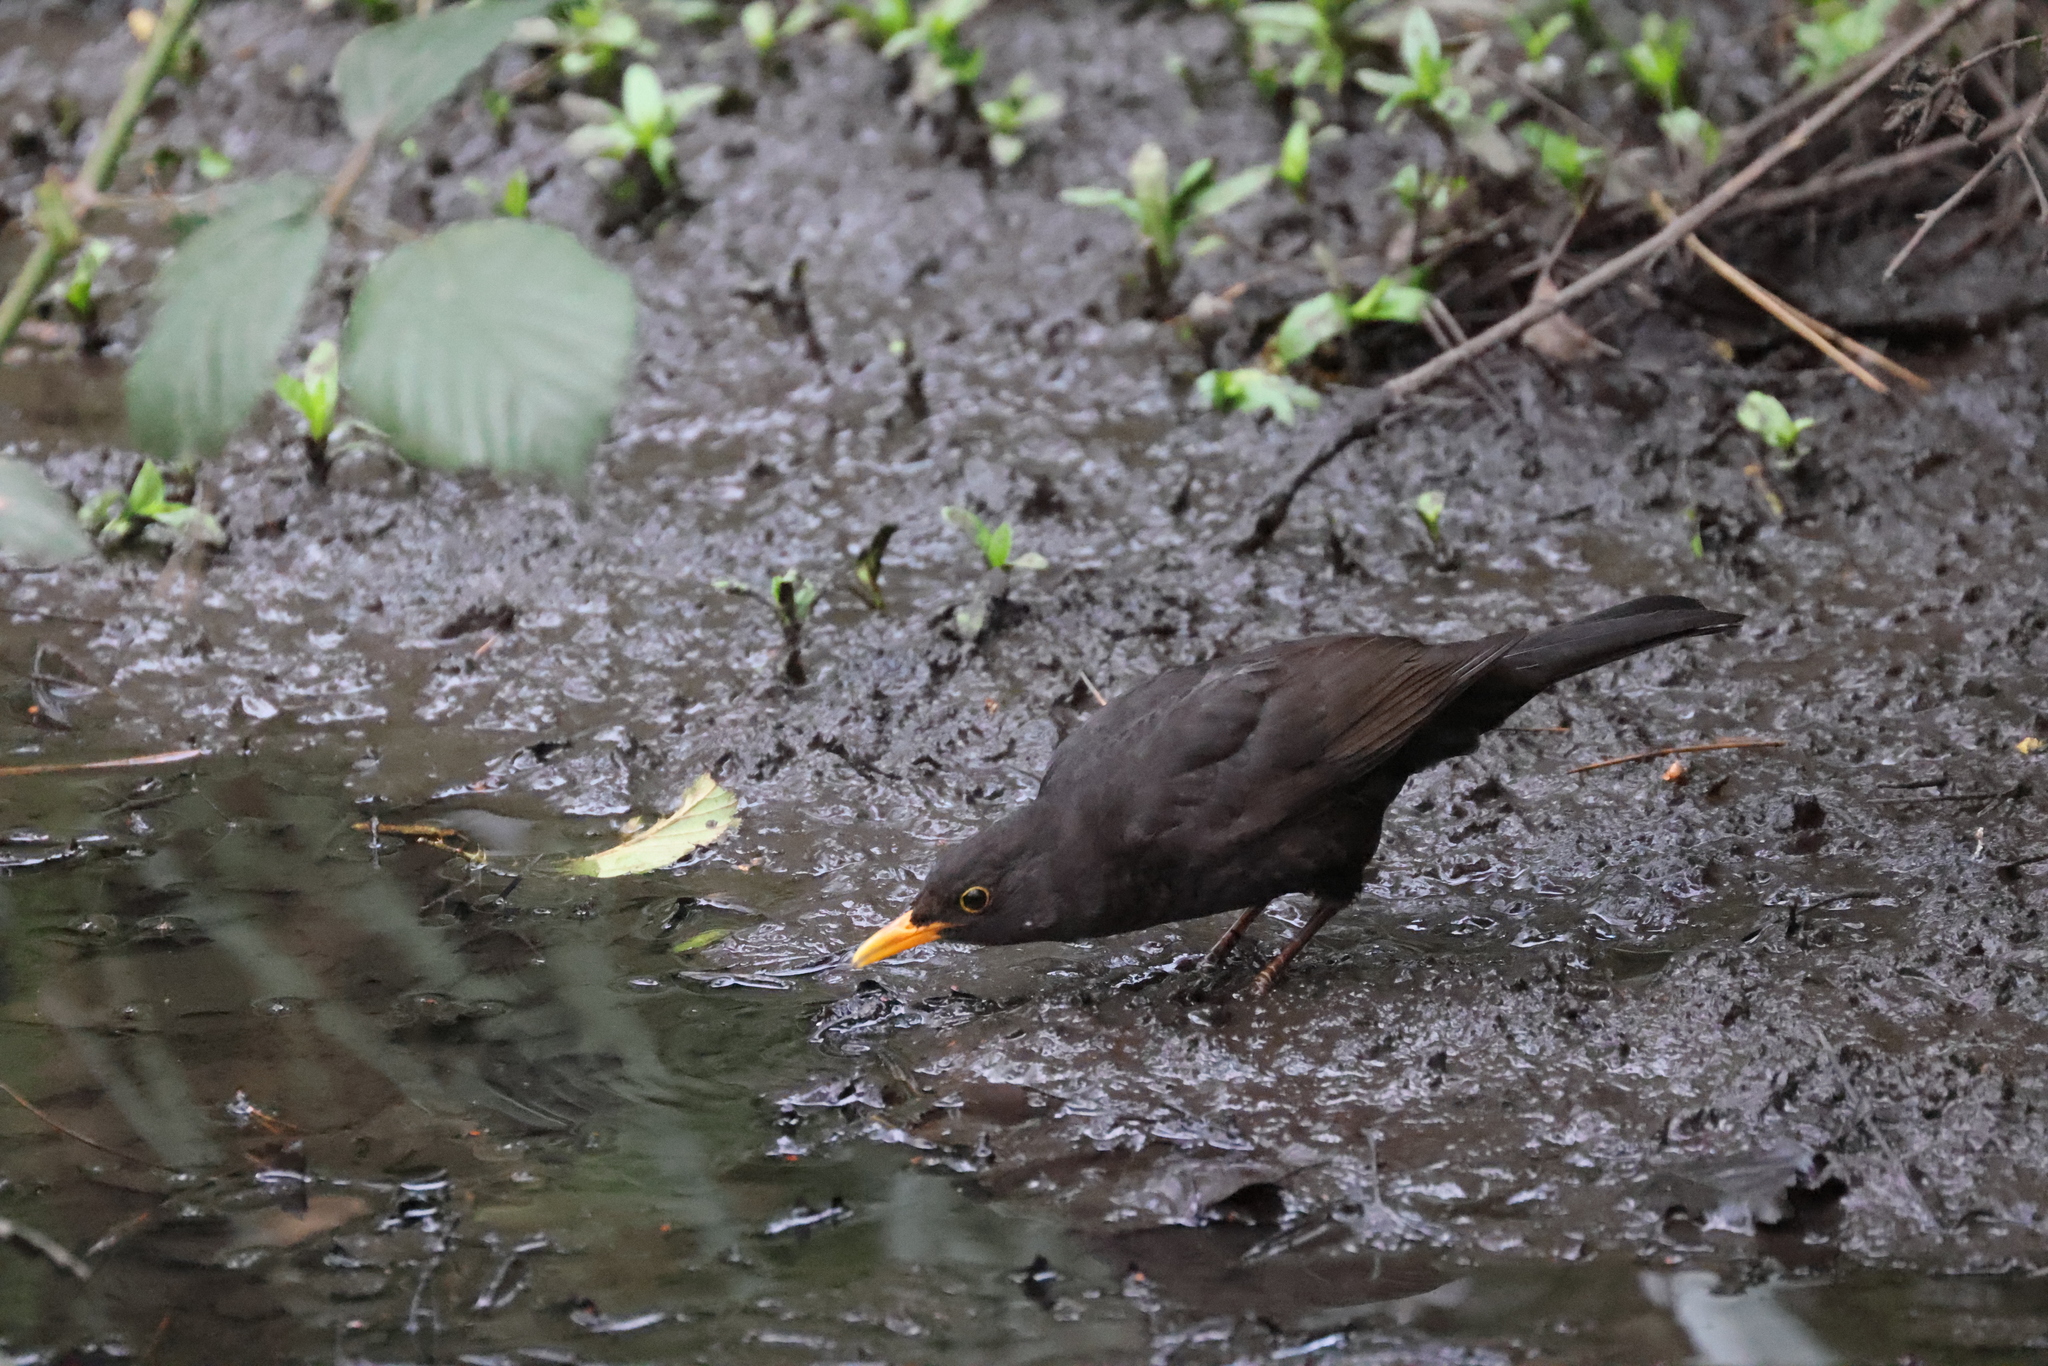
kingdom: Animalia
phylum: Chordata
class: Aves
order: Passeriformes
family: Turdidae
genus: Turdus
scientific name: Turdus merula
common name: Common blackbird
